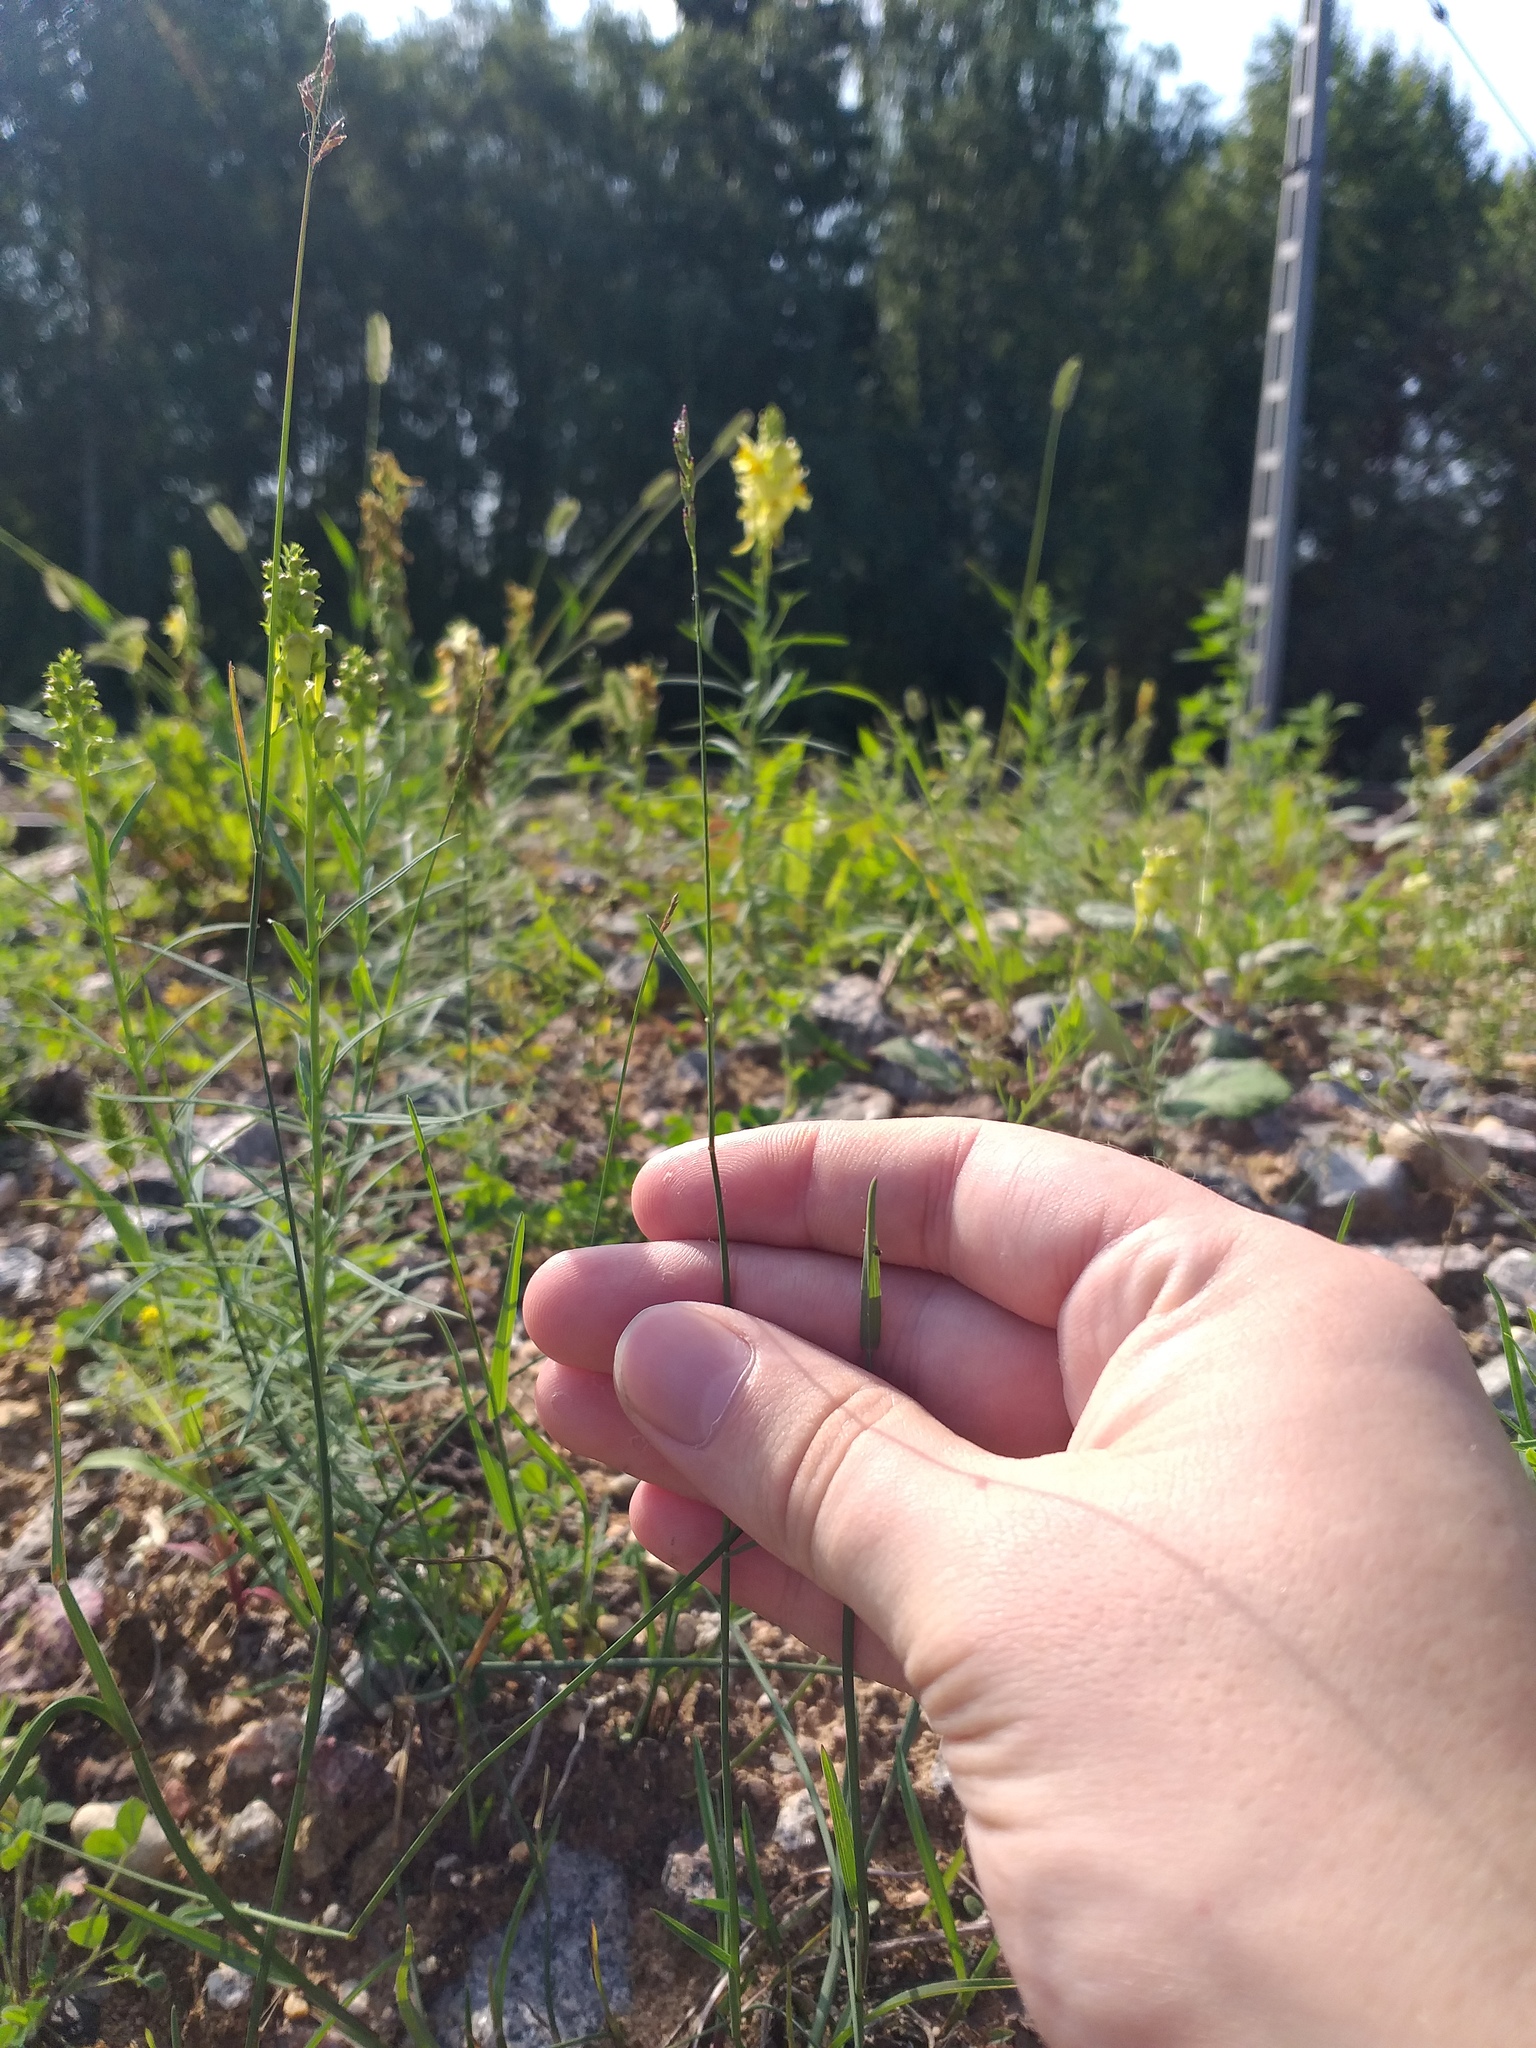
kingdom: Plantae
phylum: Tracheophyta
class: Liliopsida
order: Poales
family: Poaceae
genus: Poa
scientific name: Poa compressa
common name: Canada bluegrass
